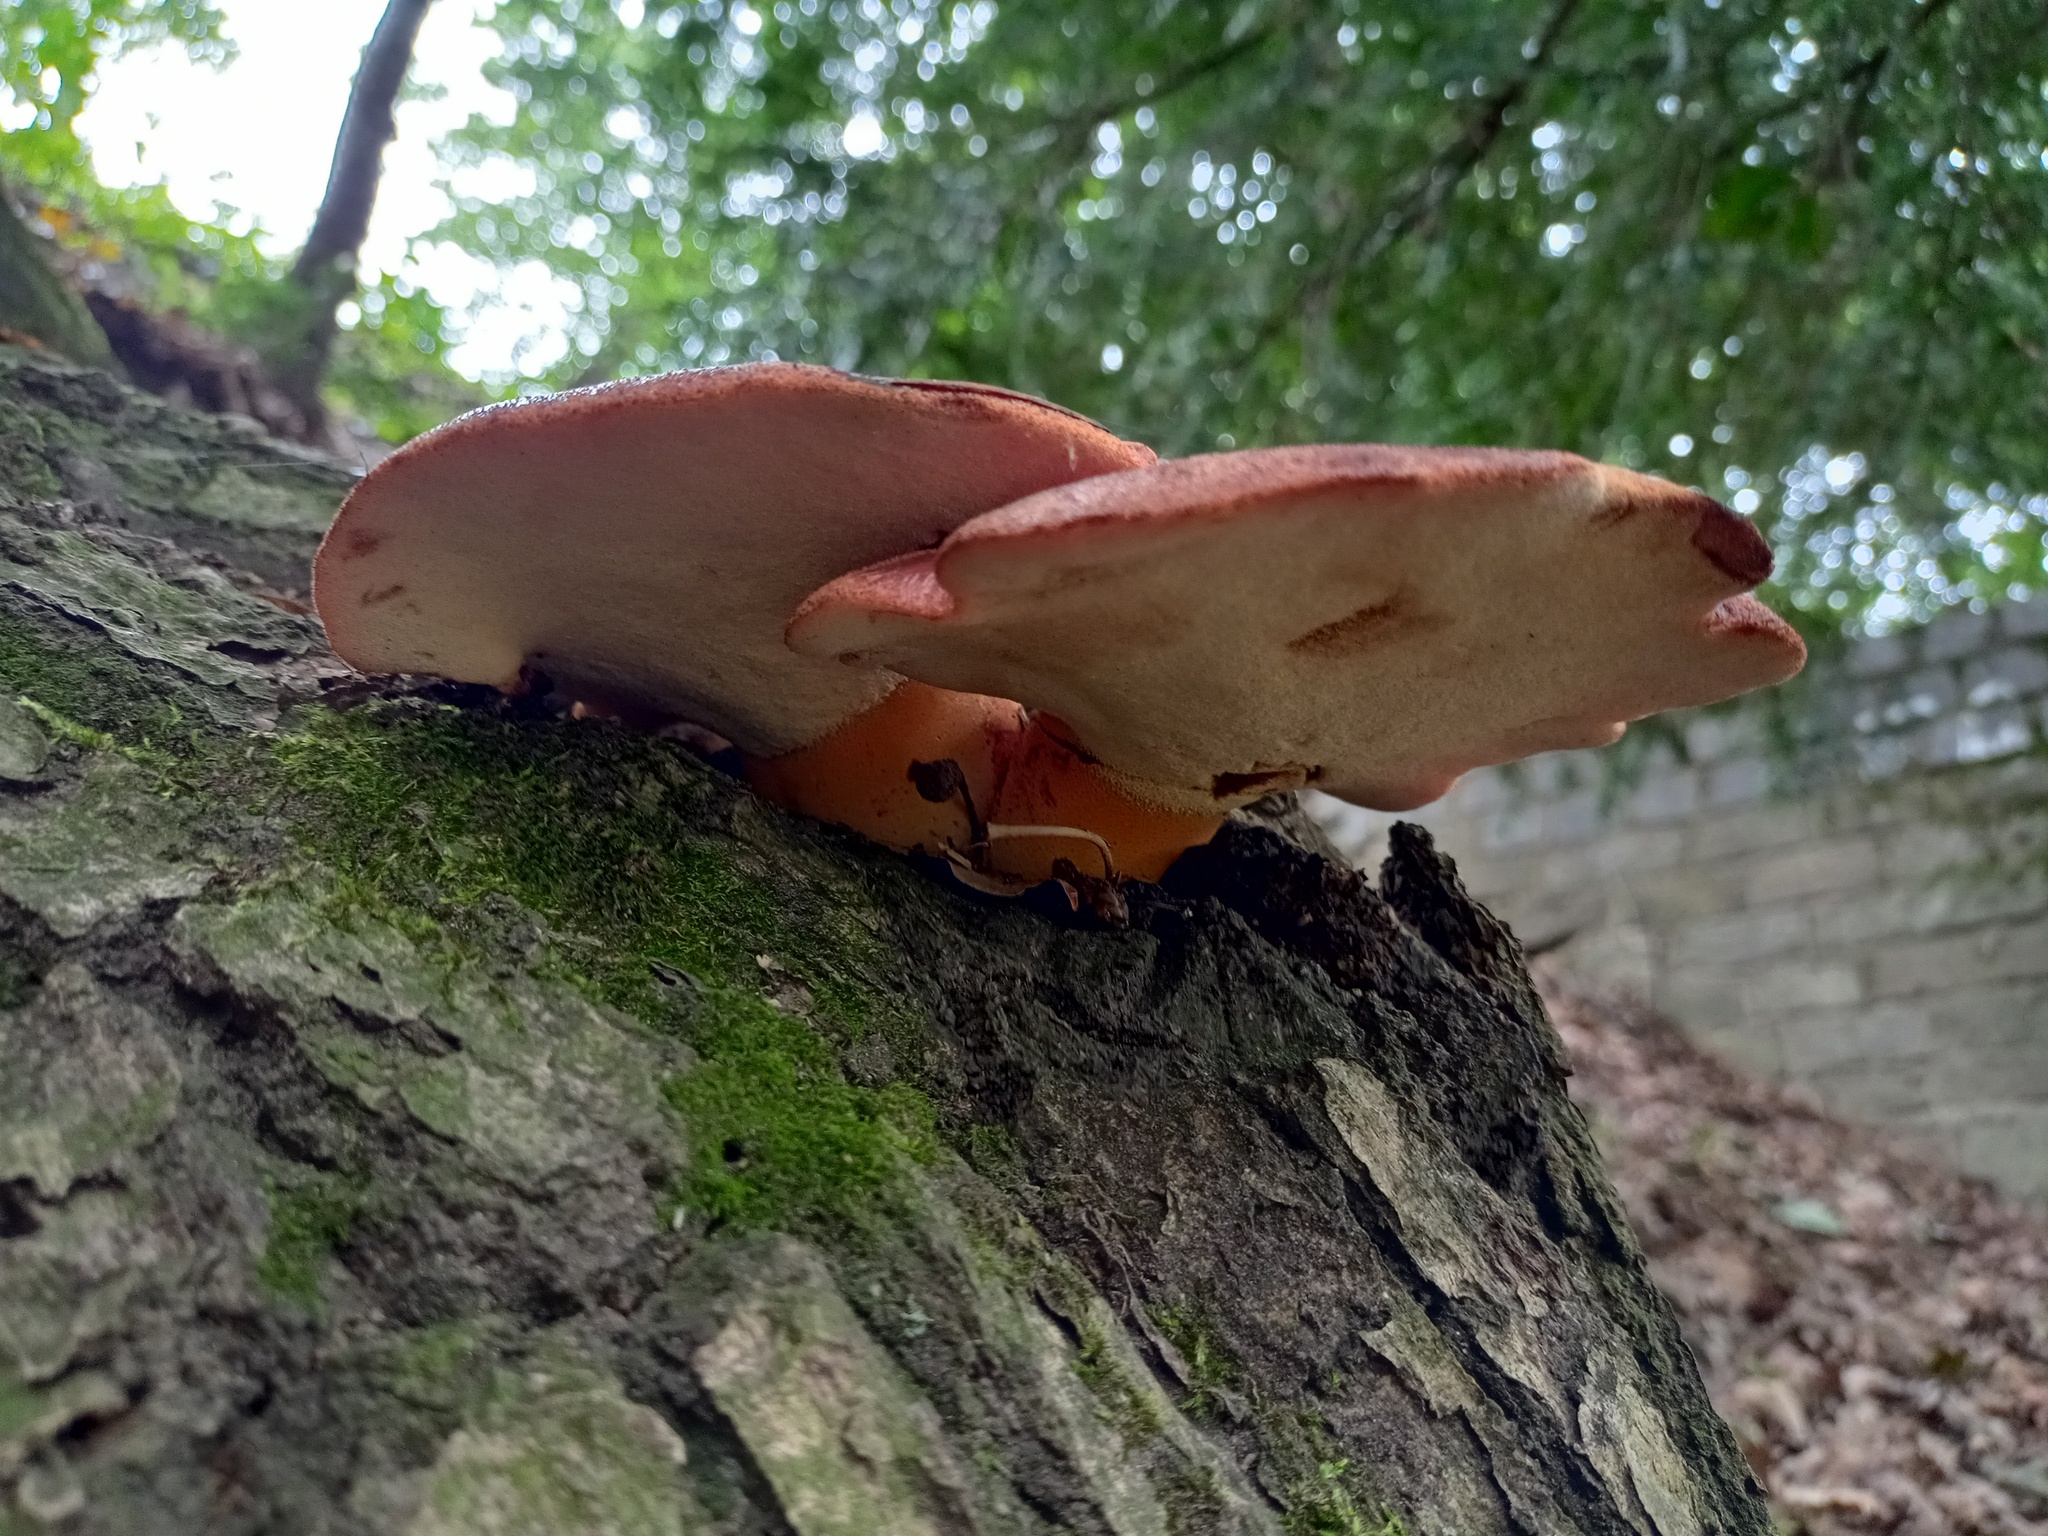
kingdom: Fungi
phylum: Basidiomycota
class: Agaricomycetes
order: Agaricales
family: Fistulinaceae
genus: Fistulina
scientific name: Fistulina hepatica
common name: Beef-steak fungus
